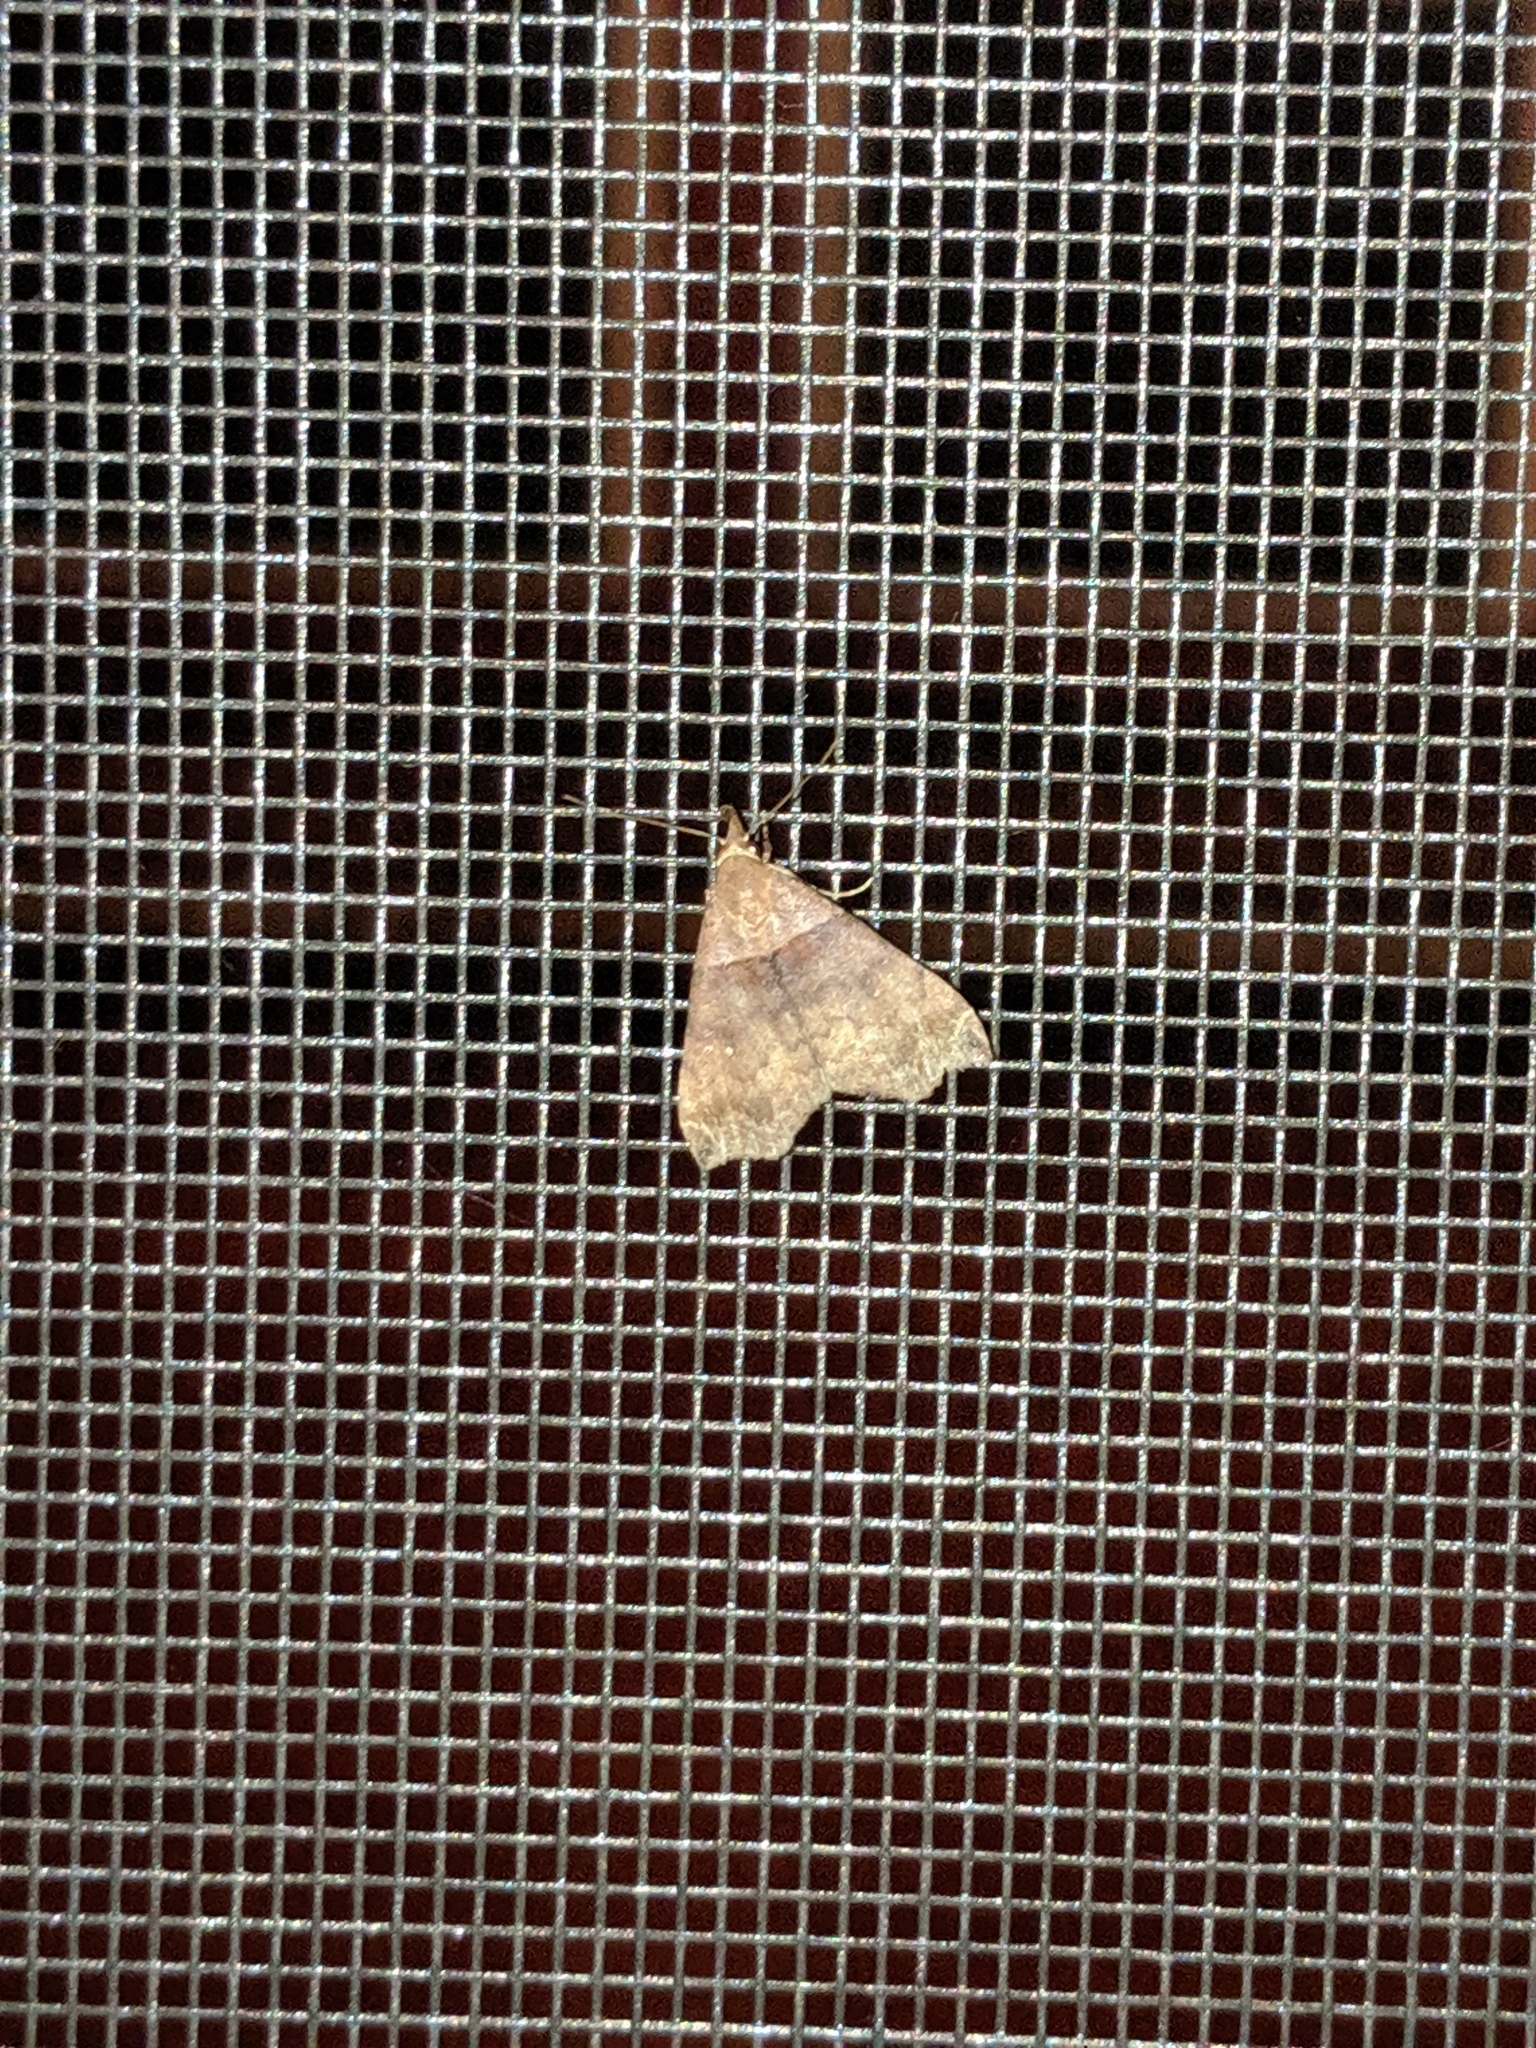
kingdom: Animalia
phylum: Arthropoda
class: Insecta
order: Lepidoptera
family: Erebidae
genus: Lascoria
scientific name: Lascoria ambigualis
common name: Ambiguous moth
